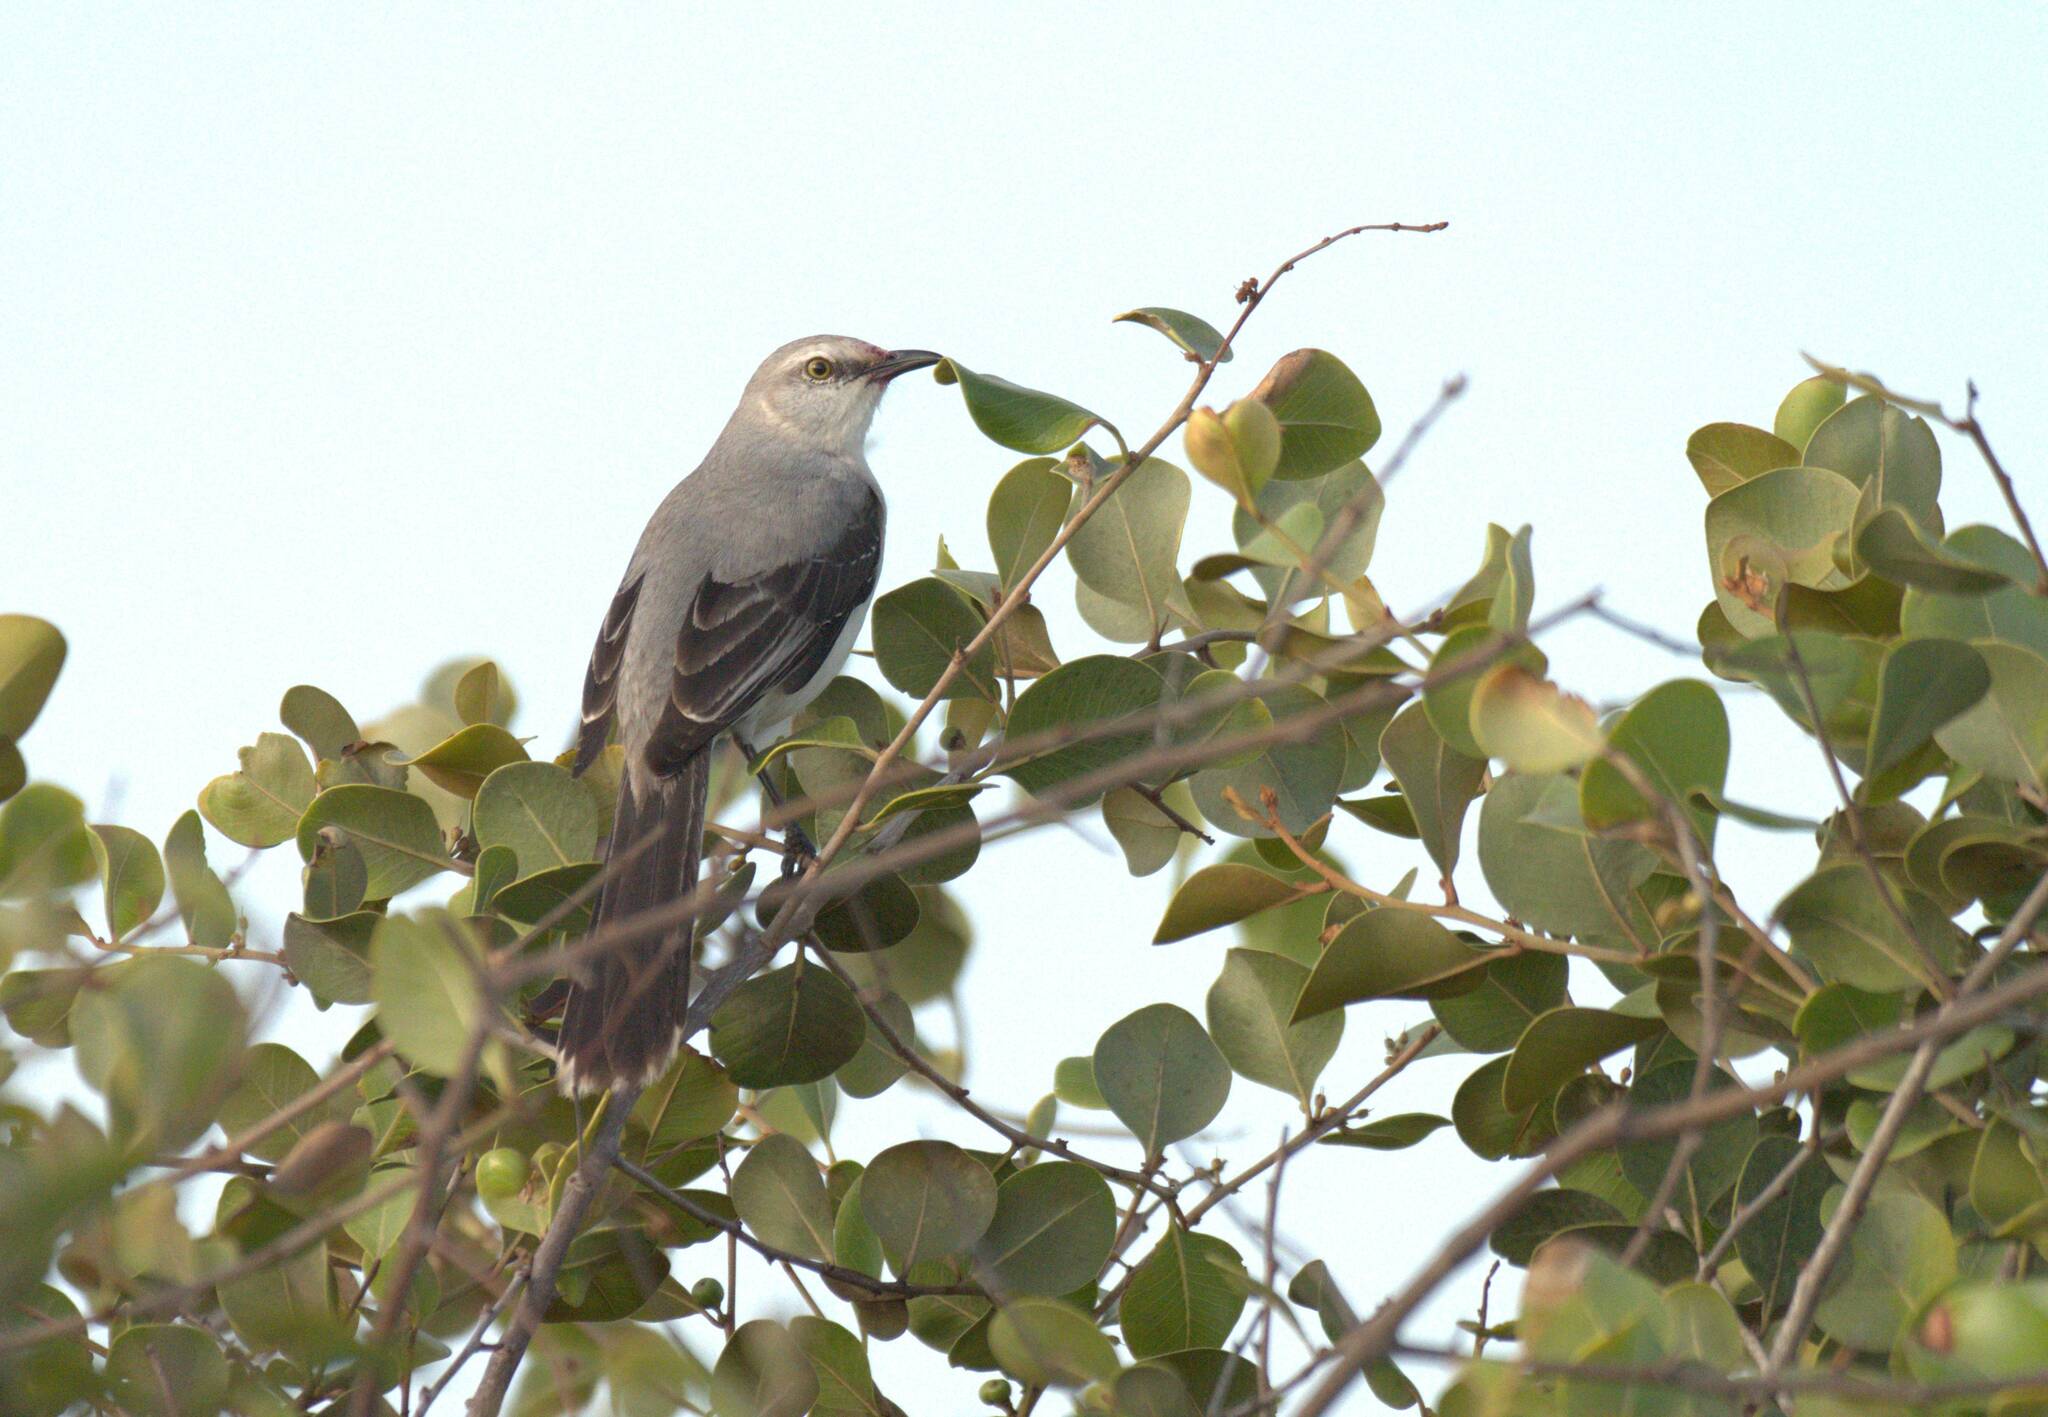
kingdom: Animalia
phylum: Chordata
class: Aves
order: Passeriformes
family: Mimidae
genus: Mimus
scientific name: Mimus gilvus
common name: Tropical mockingbird
